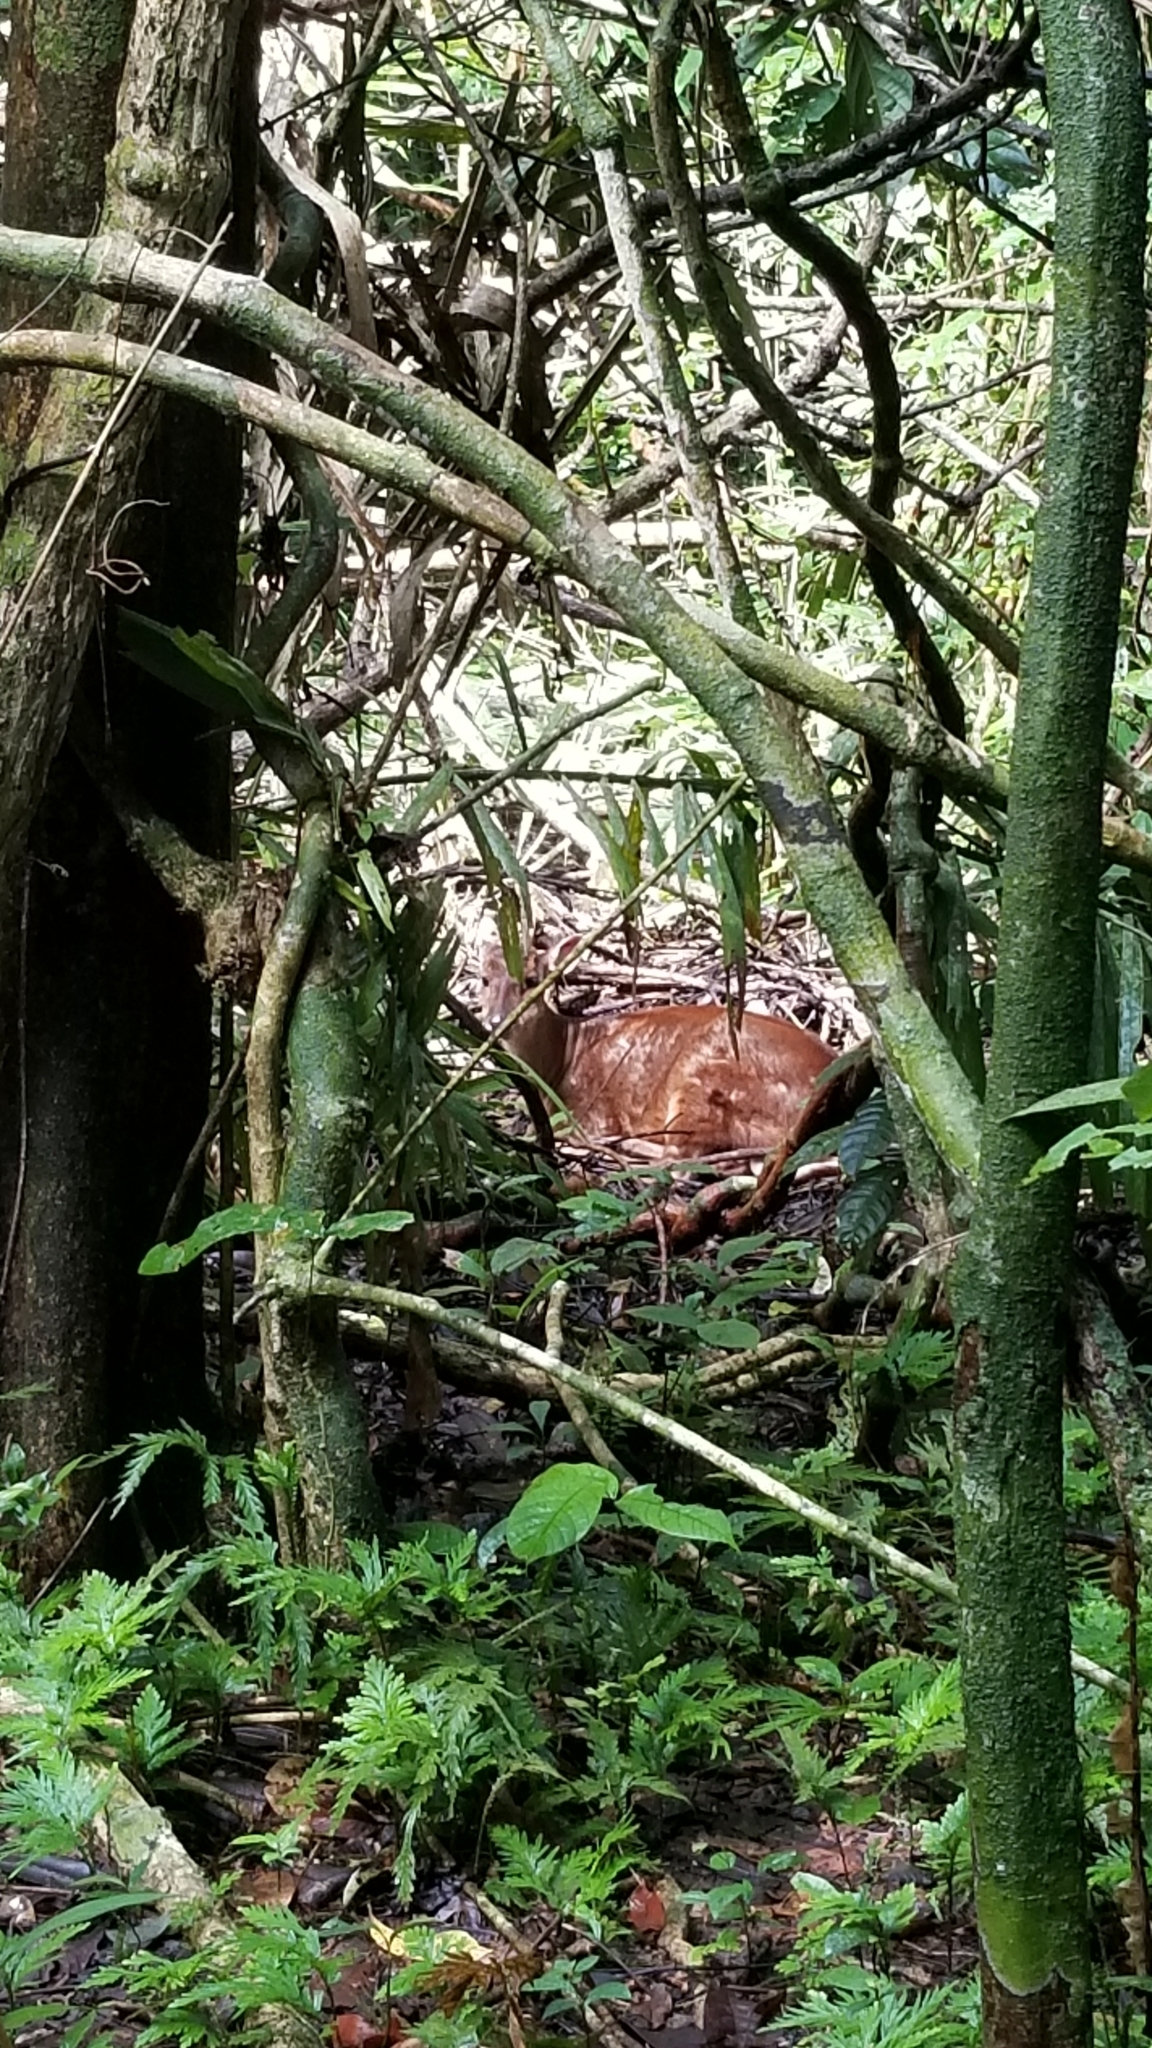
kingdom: Animalia
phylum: Chordata
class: Mammalia
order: Artiodactyla
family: Cervidae
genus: Mazama
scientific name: Mazama temama
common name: Central american red brocket
